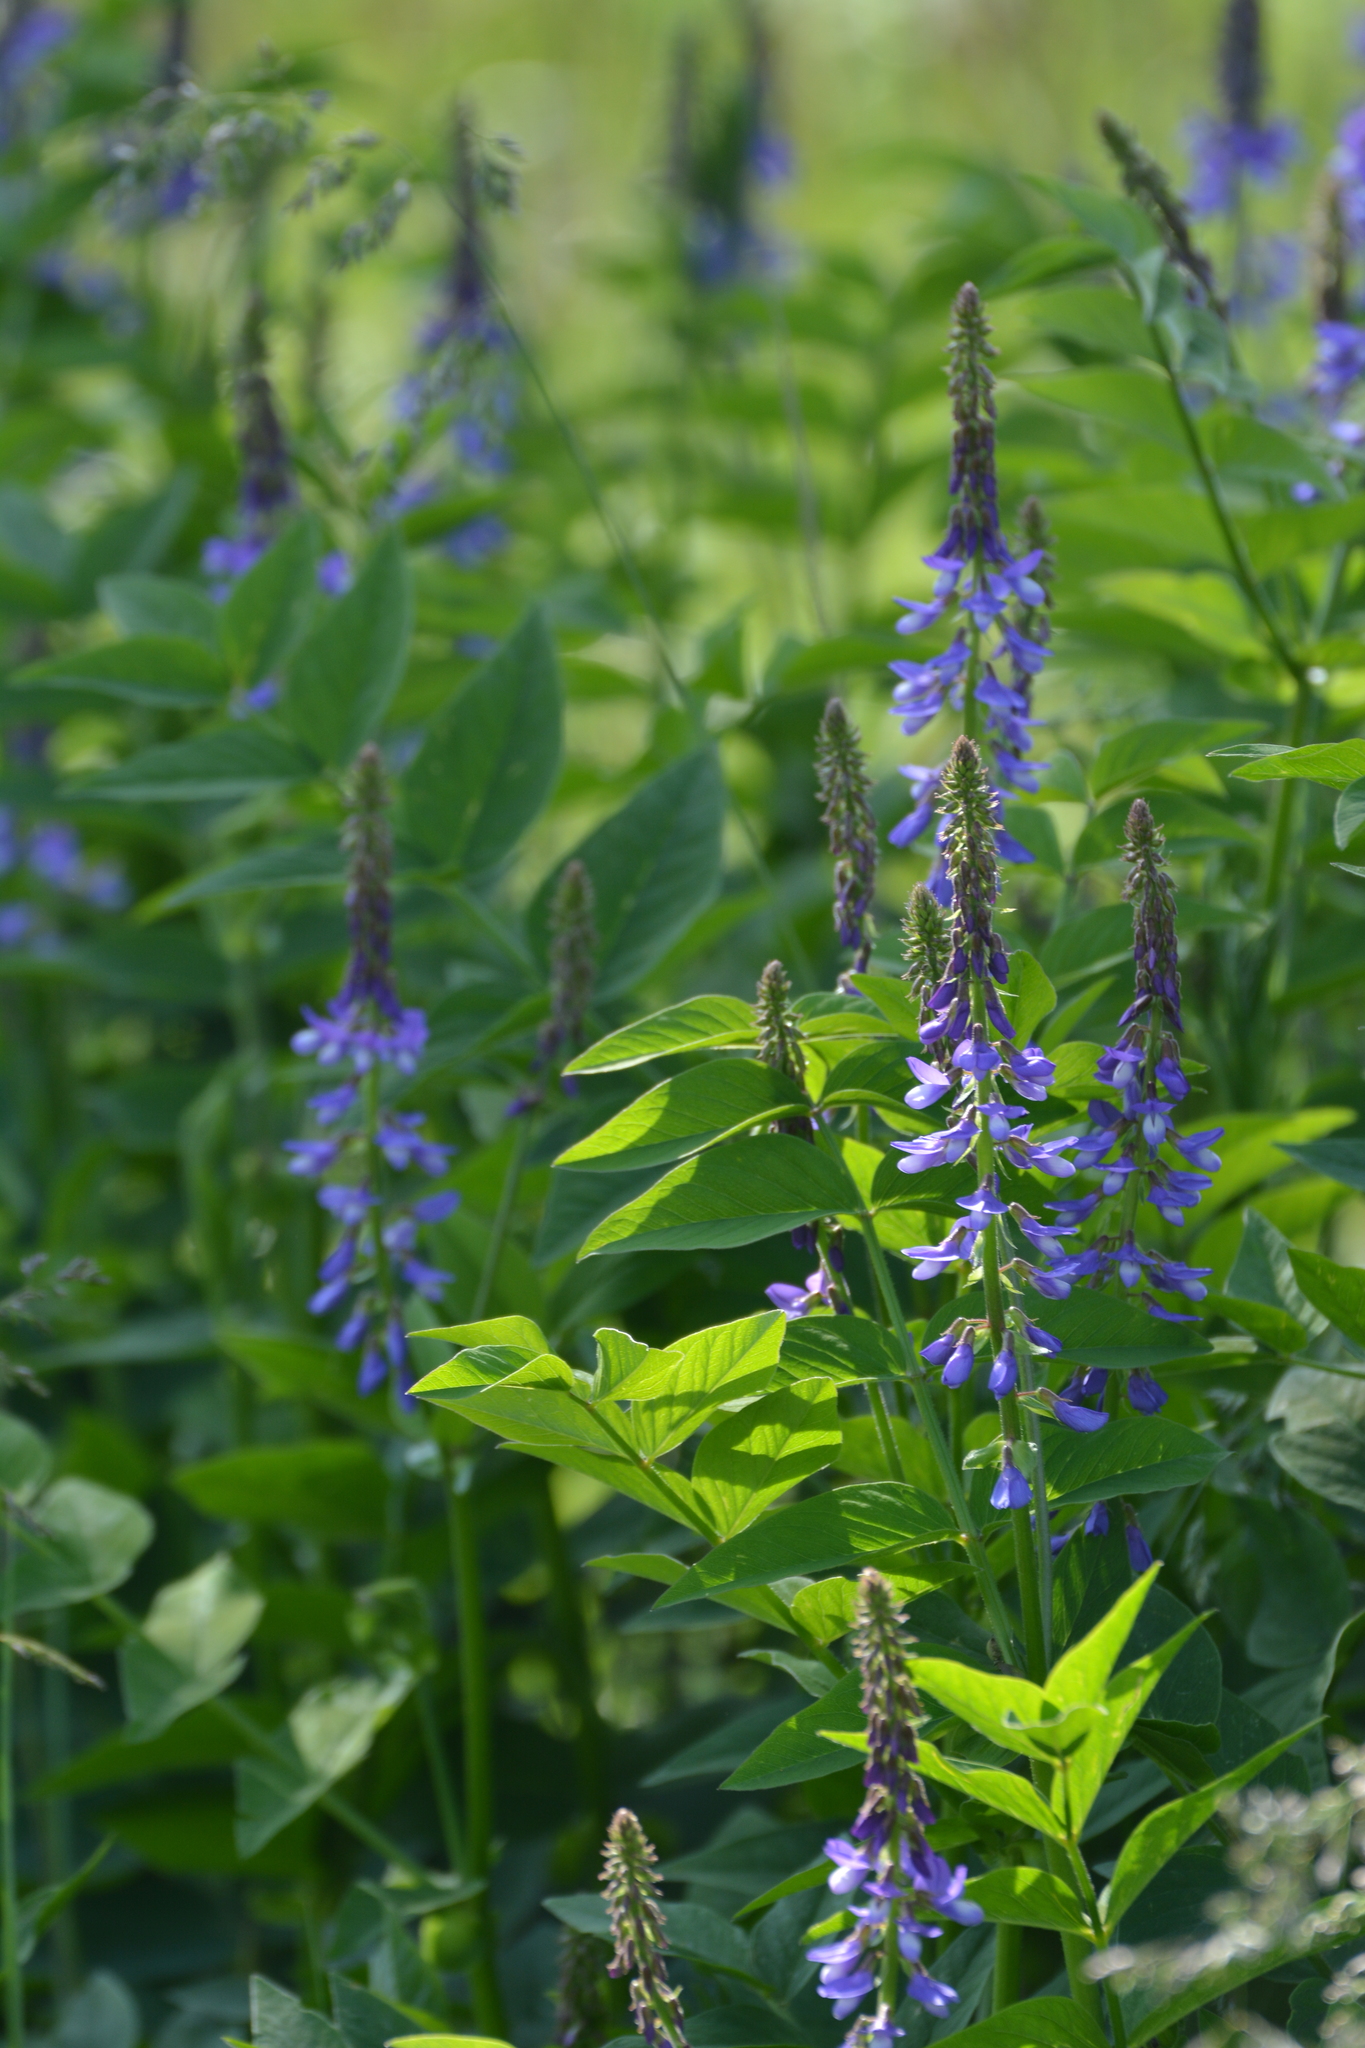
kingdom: Plantae
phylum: Tracheophyta
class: Magnoliopsida
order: Fabales
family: Fabaceae
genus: Galega
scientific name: Galega orientalis
